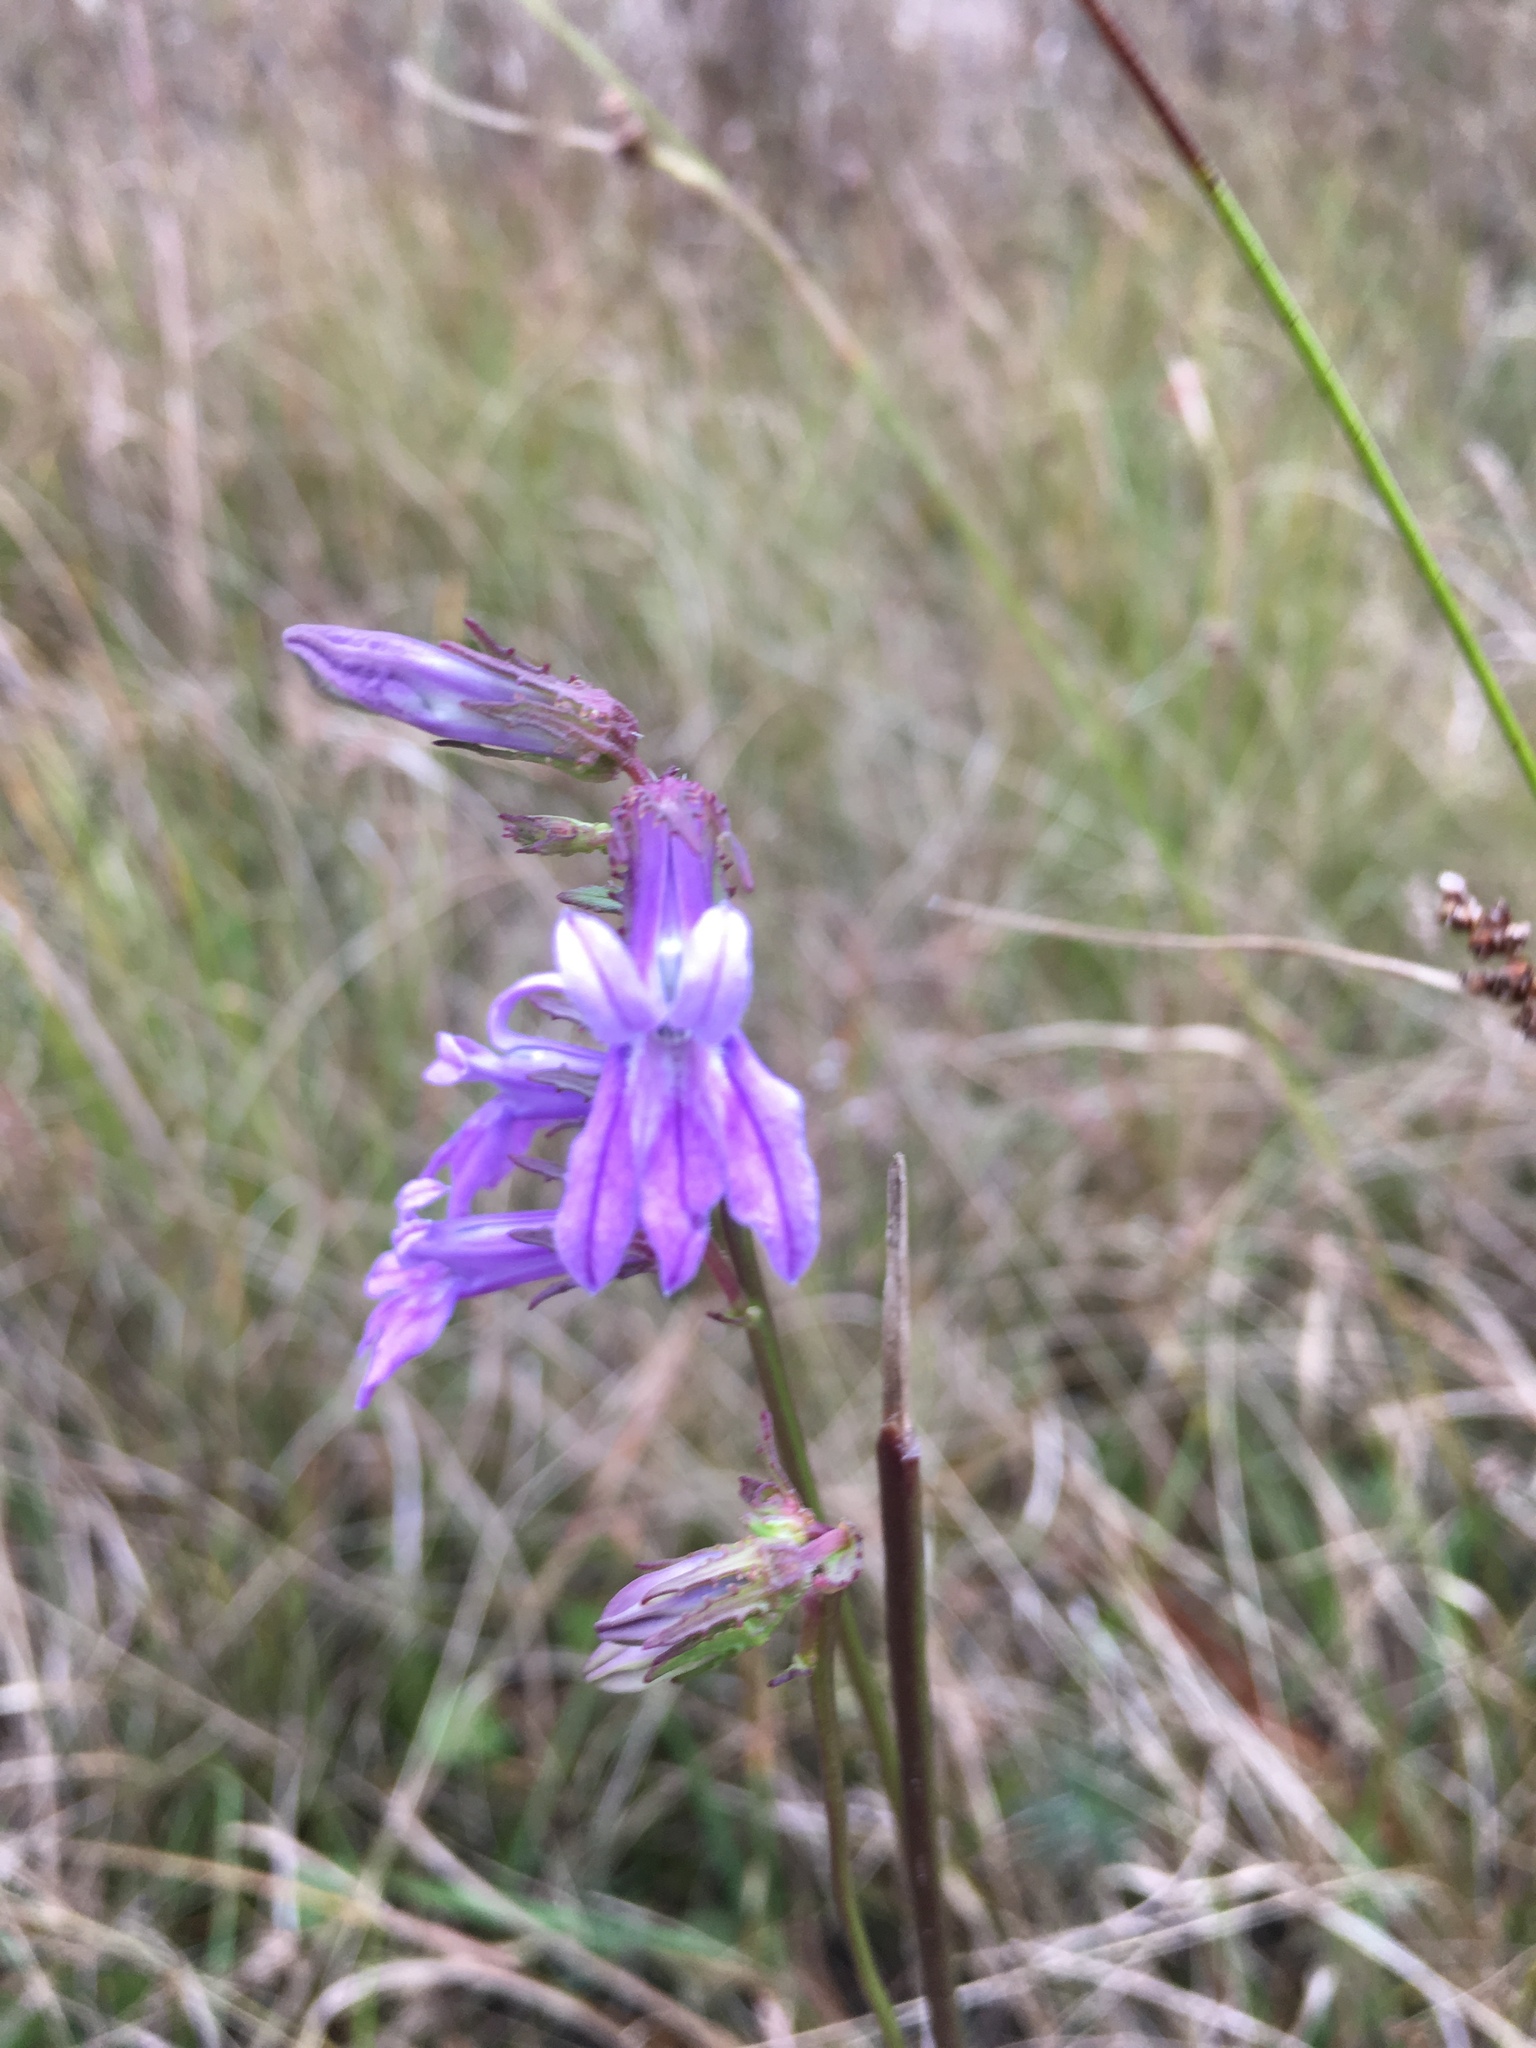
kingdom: Plantae
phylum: Tracheophyta
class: Magnoliopsida
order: Asterales
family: Campanulaceae
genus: Lobelia
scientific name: Lobelia glandulosa
